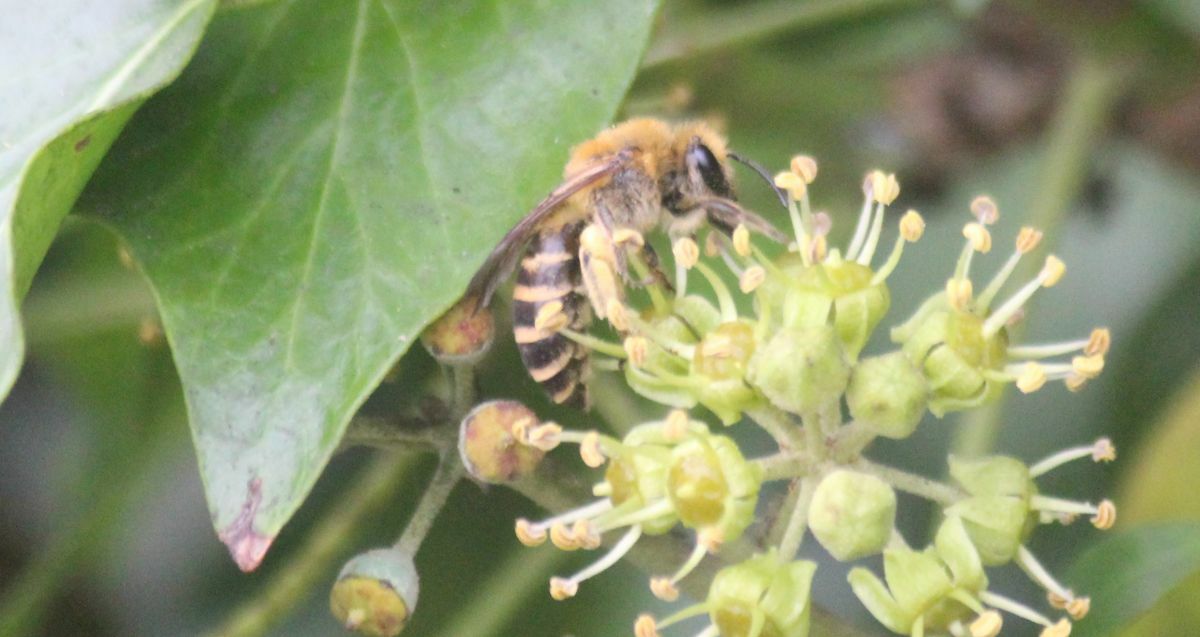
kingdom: Animalia
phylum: Arthropoda
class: Insecta
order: Hymenoptera
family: Colletidae
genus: Colletes
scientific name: Colletes hederae
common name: Ivy bee
